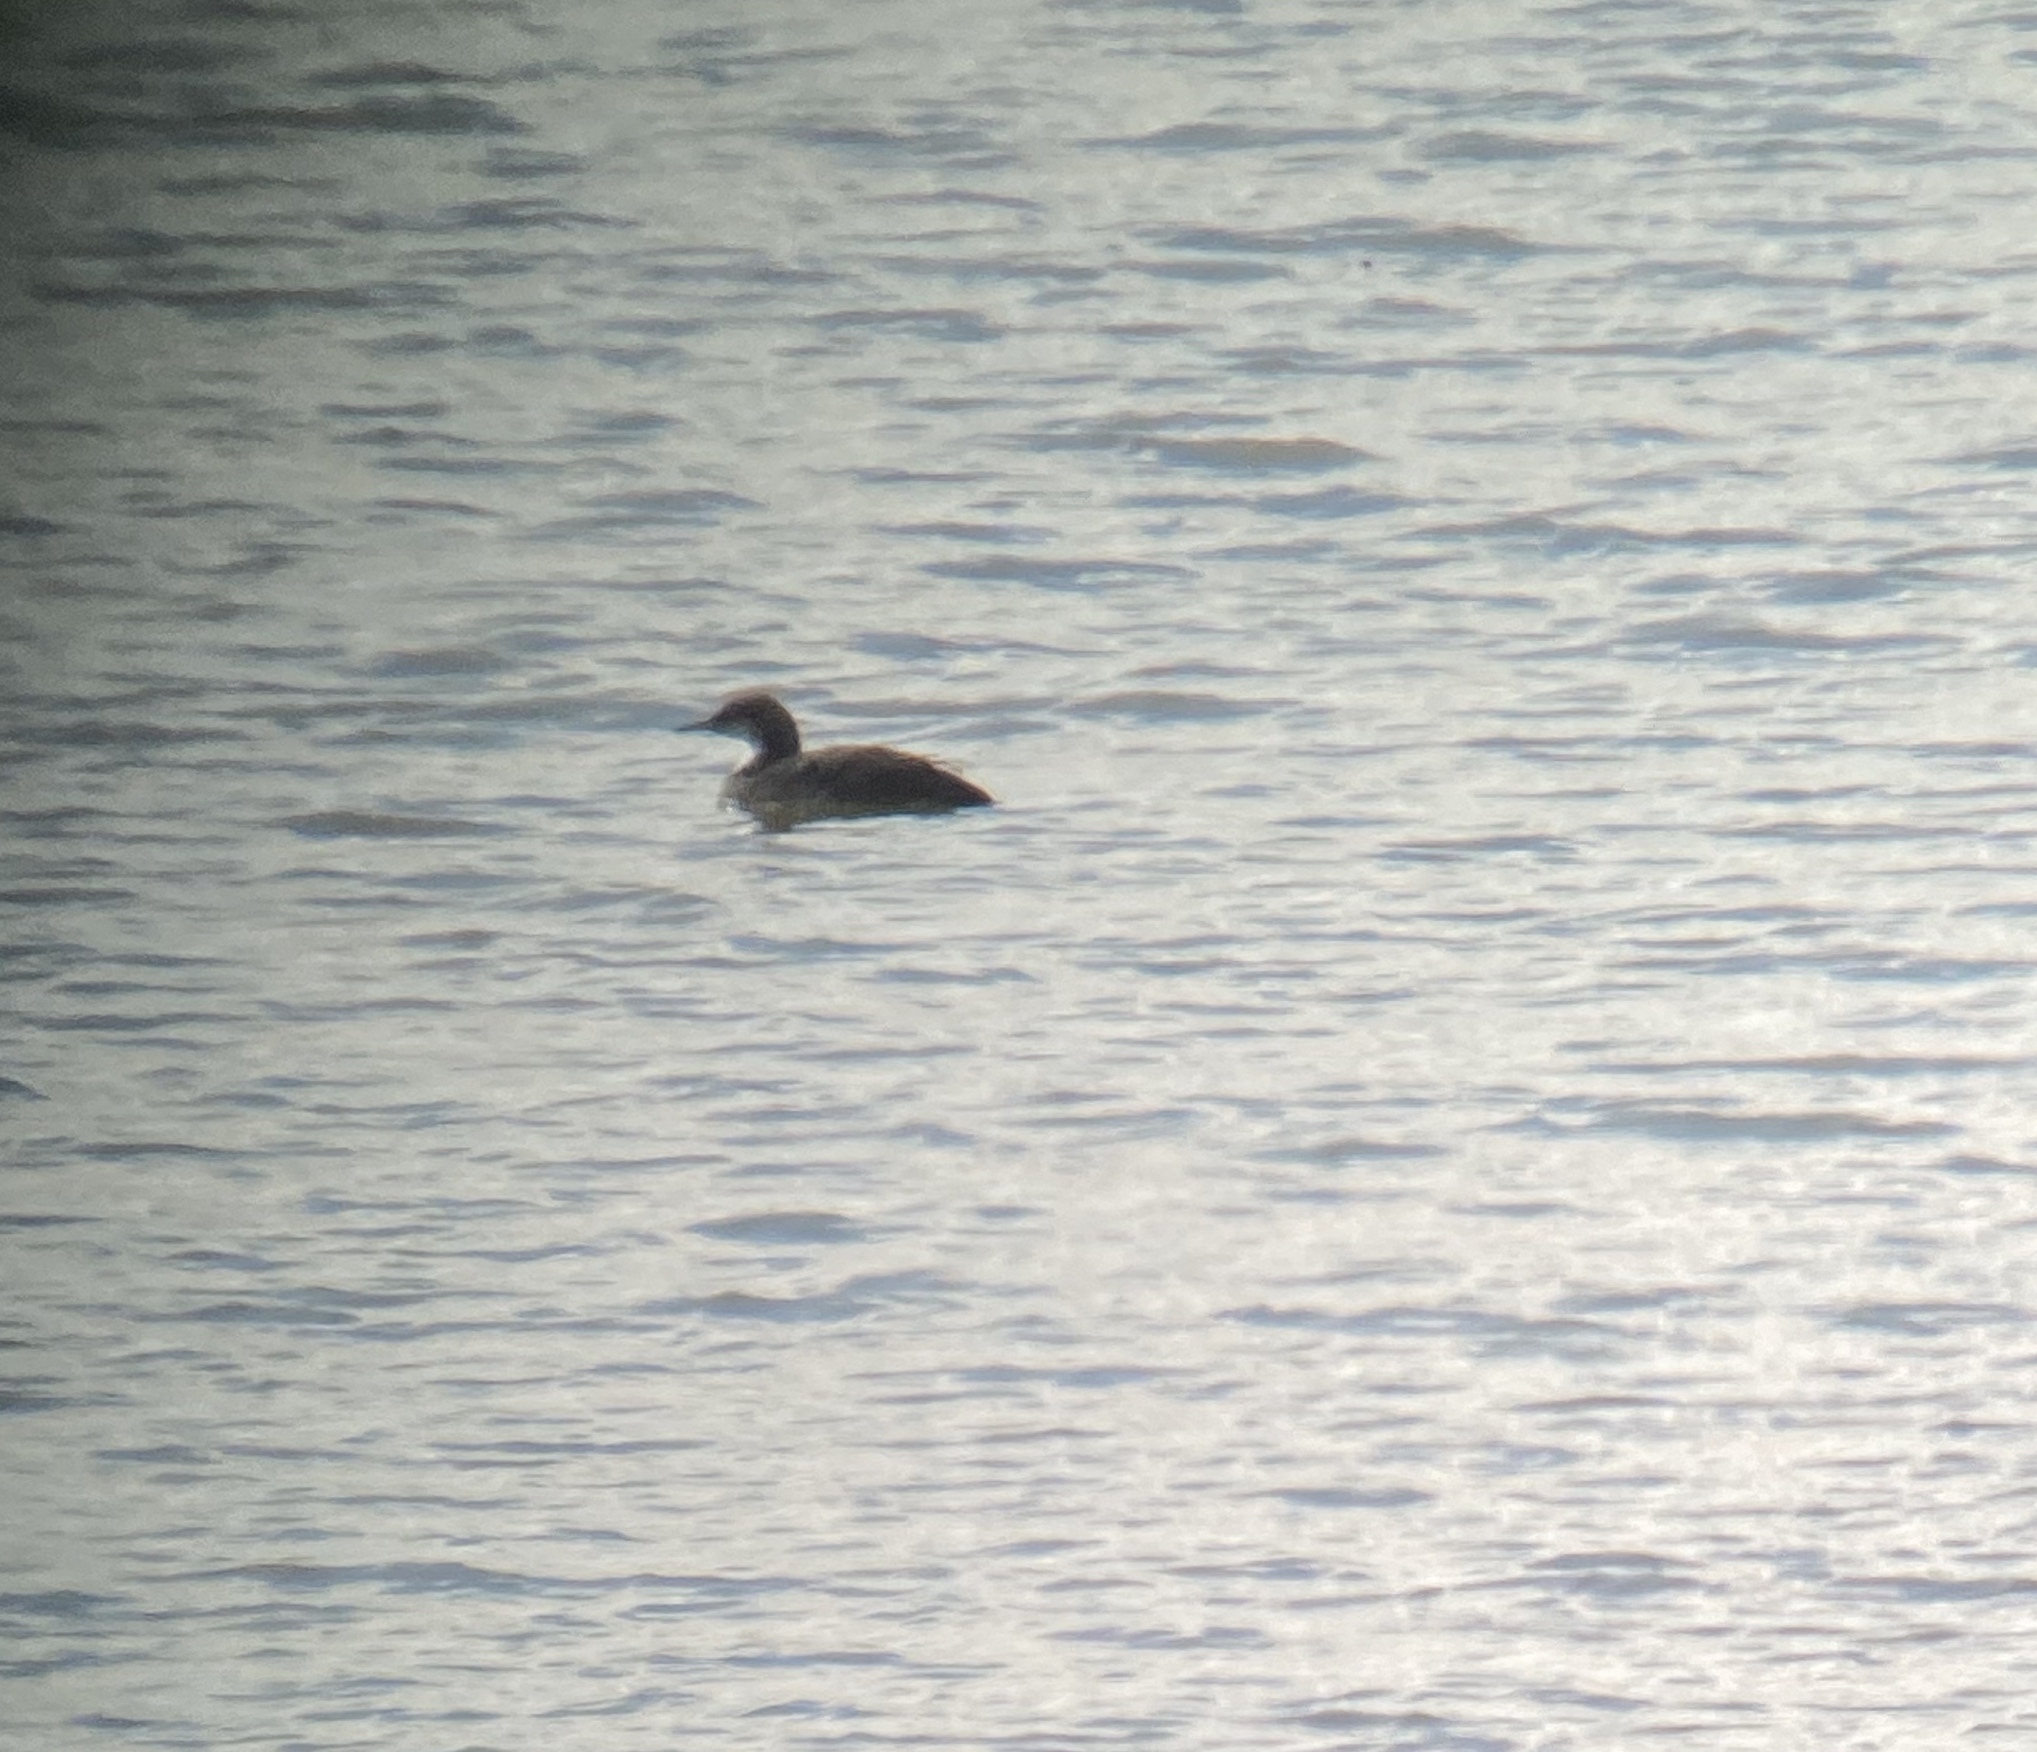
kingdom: Animalia
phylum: Chordata
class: Aves
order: Gaviiformes
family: Gaviidae
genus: Gavia
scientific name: Gavia pacifica
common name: Pacific loon
